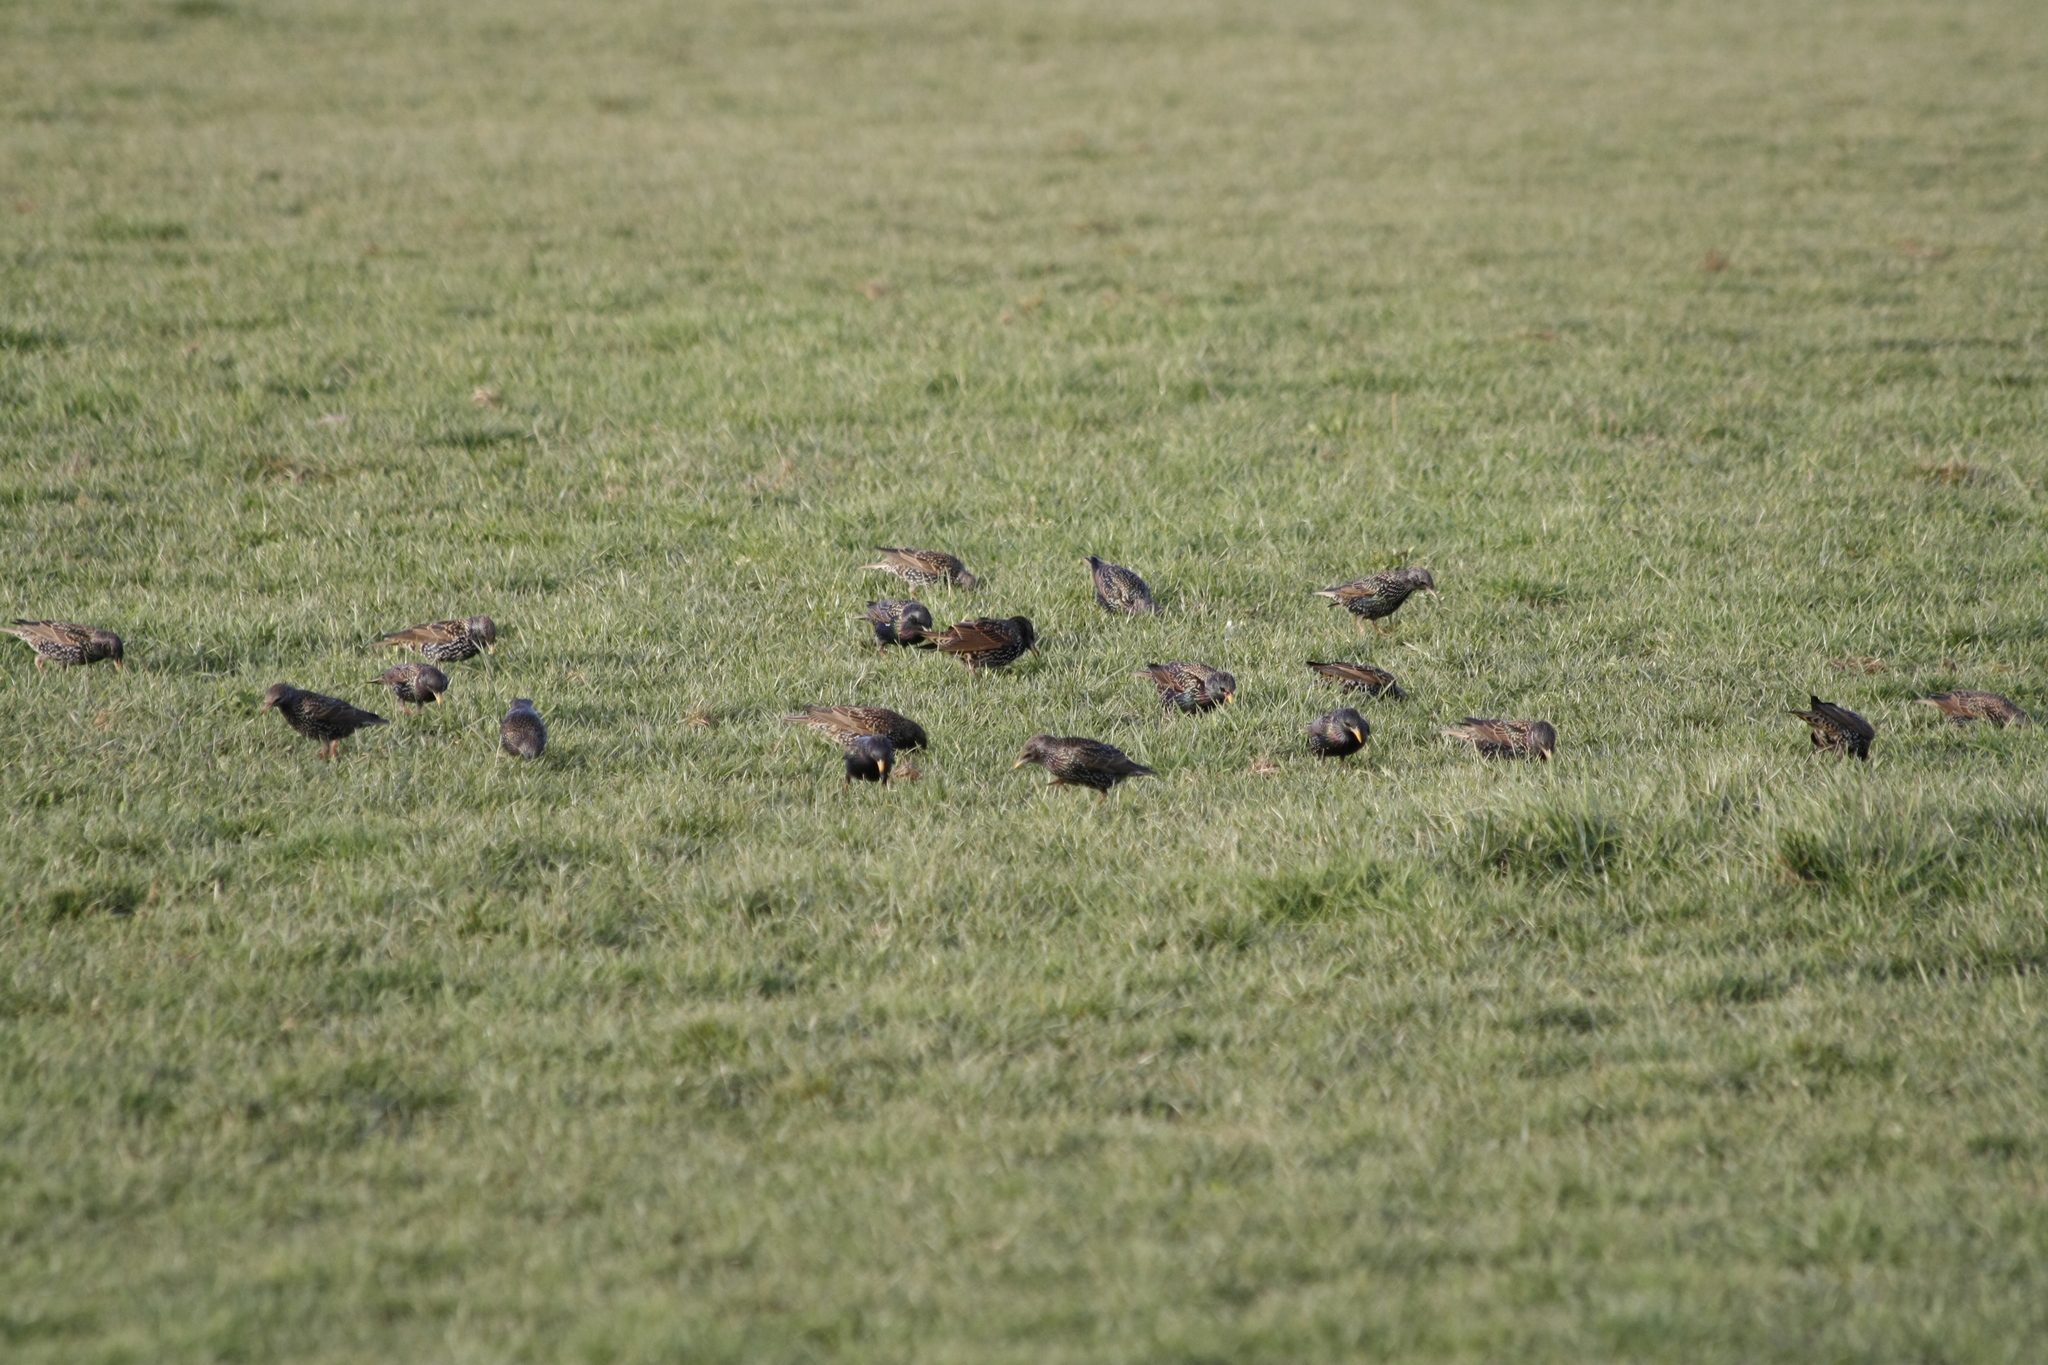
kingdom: Animalia
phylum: Chordata
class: Aves
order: Passeriformes
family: Sturnidae
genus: Sturnus
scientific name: Sturnus vulgaris
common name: Common starling
